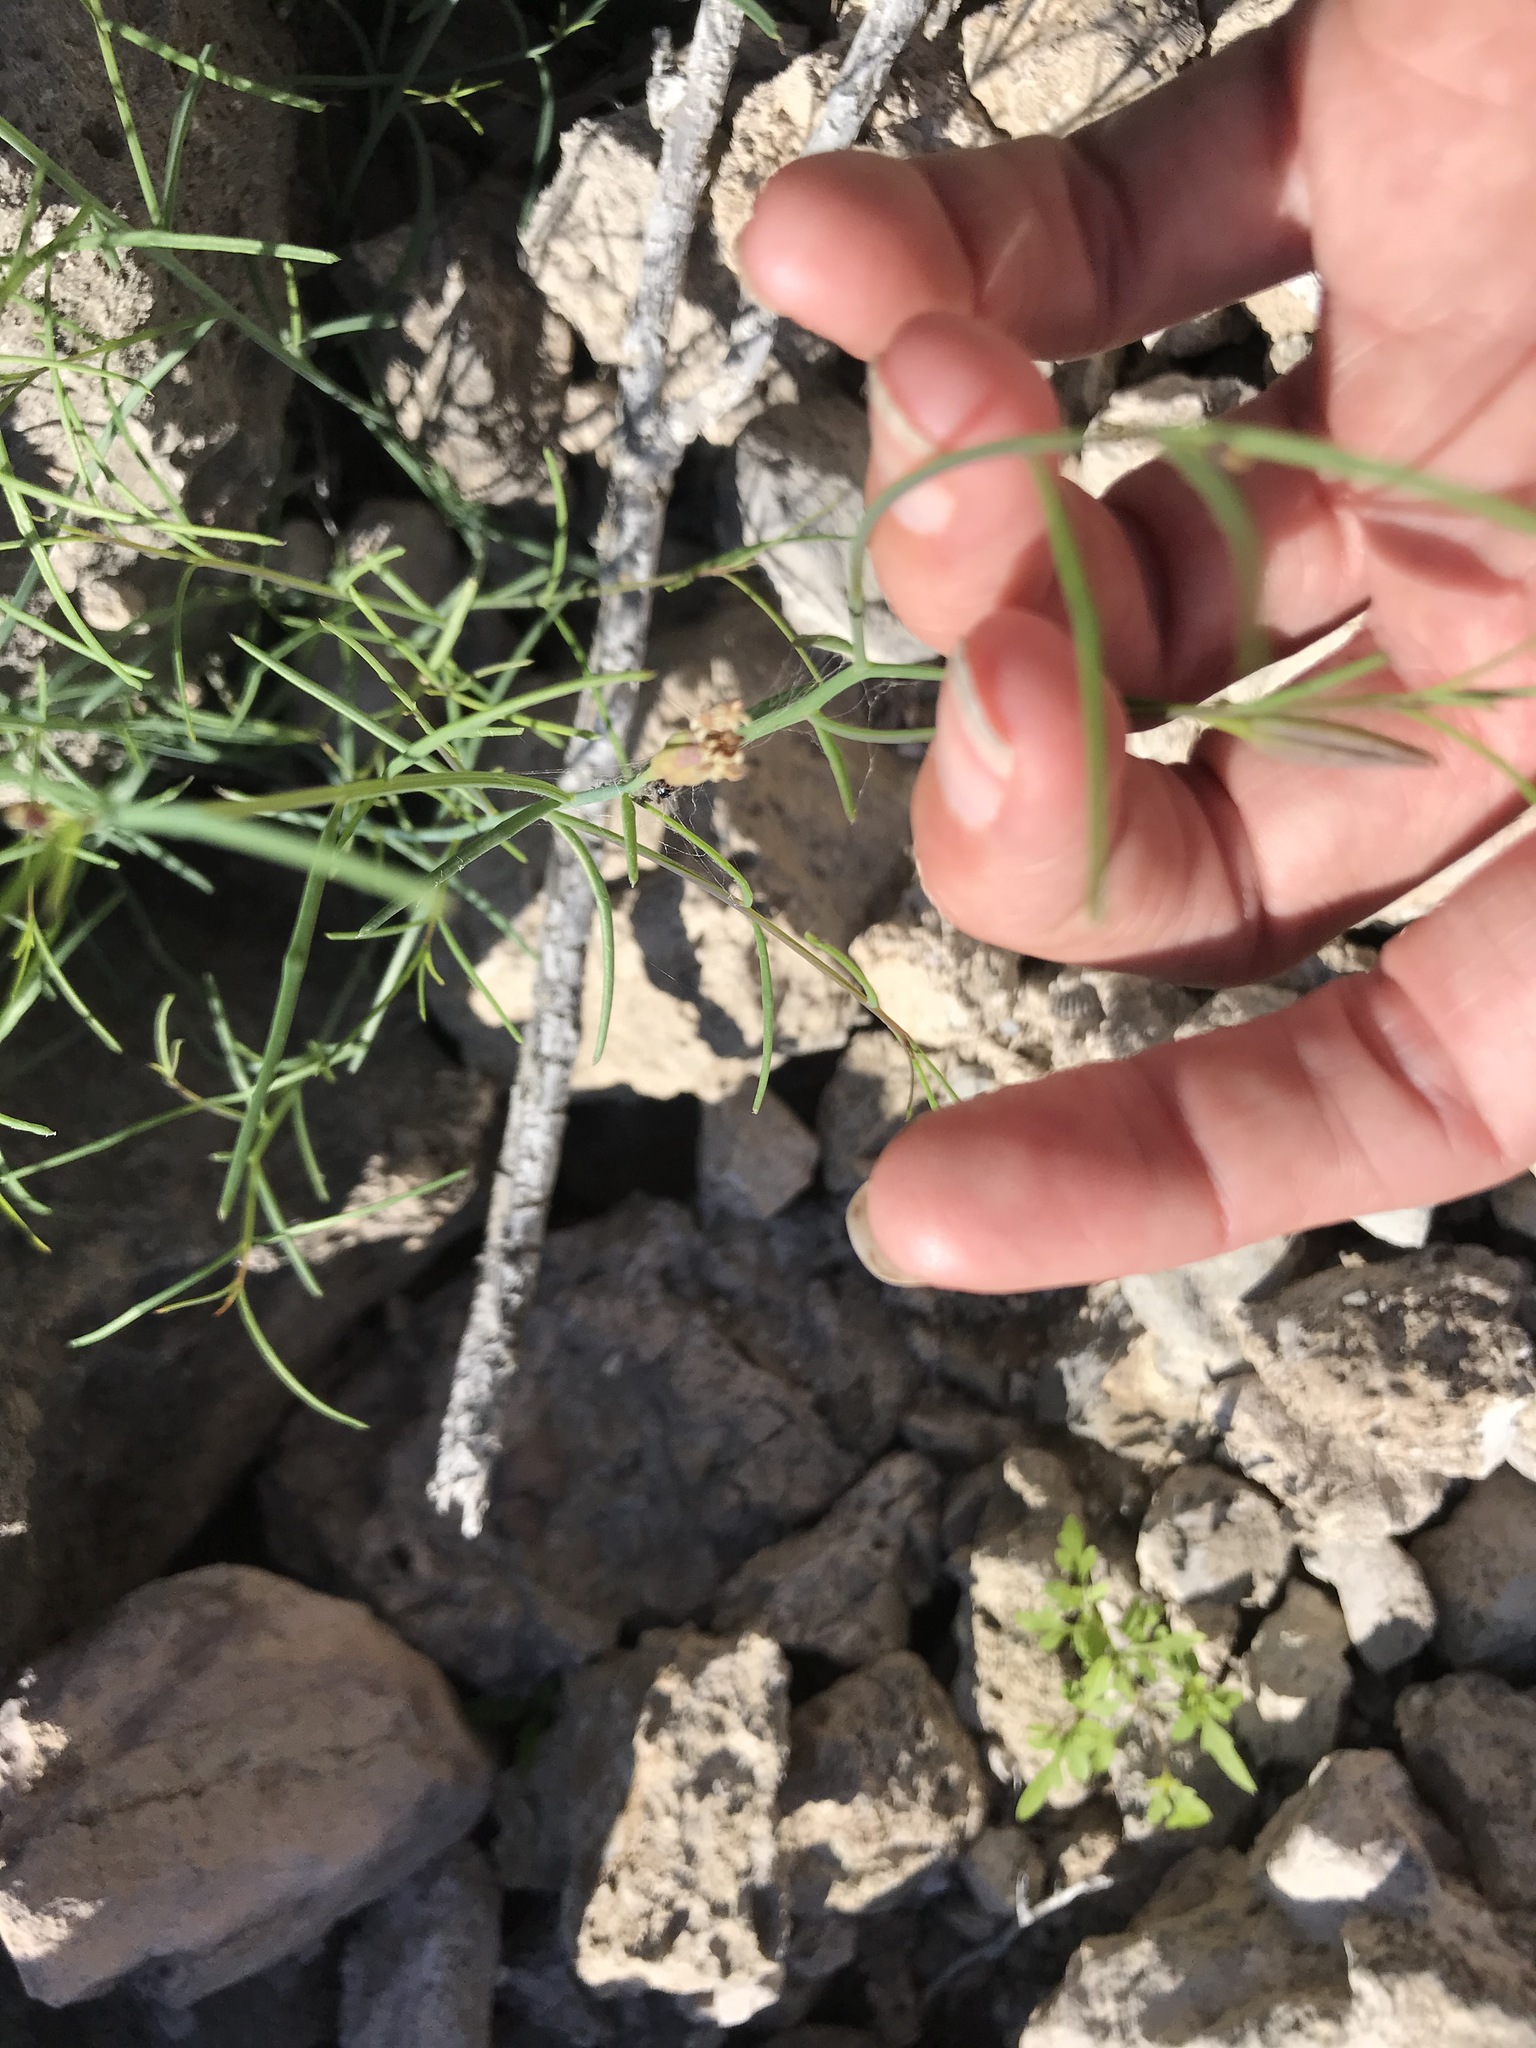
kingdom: Plantae
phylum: Tracheophyta
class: Magnoliopsida
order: Asterales
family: Asteraceae
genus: Porophyllum
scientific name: Porophyllum gracile
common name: Odora
